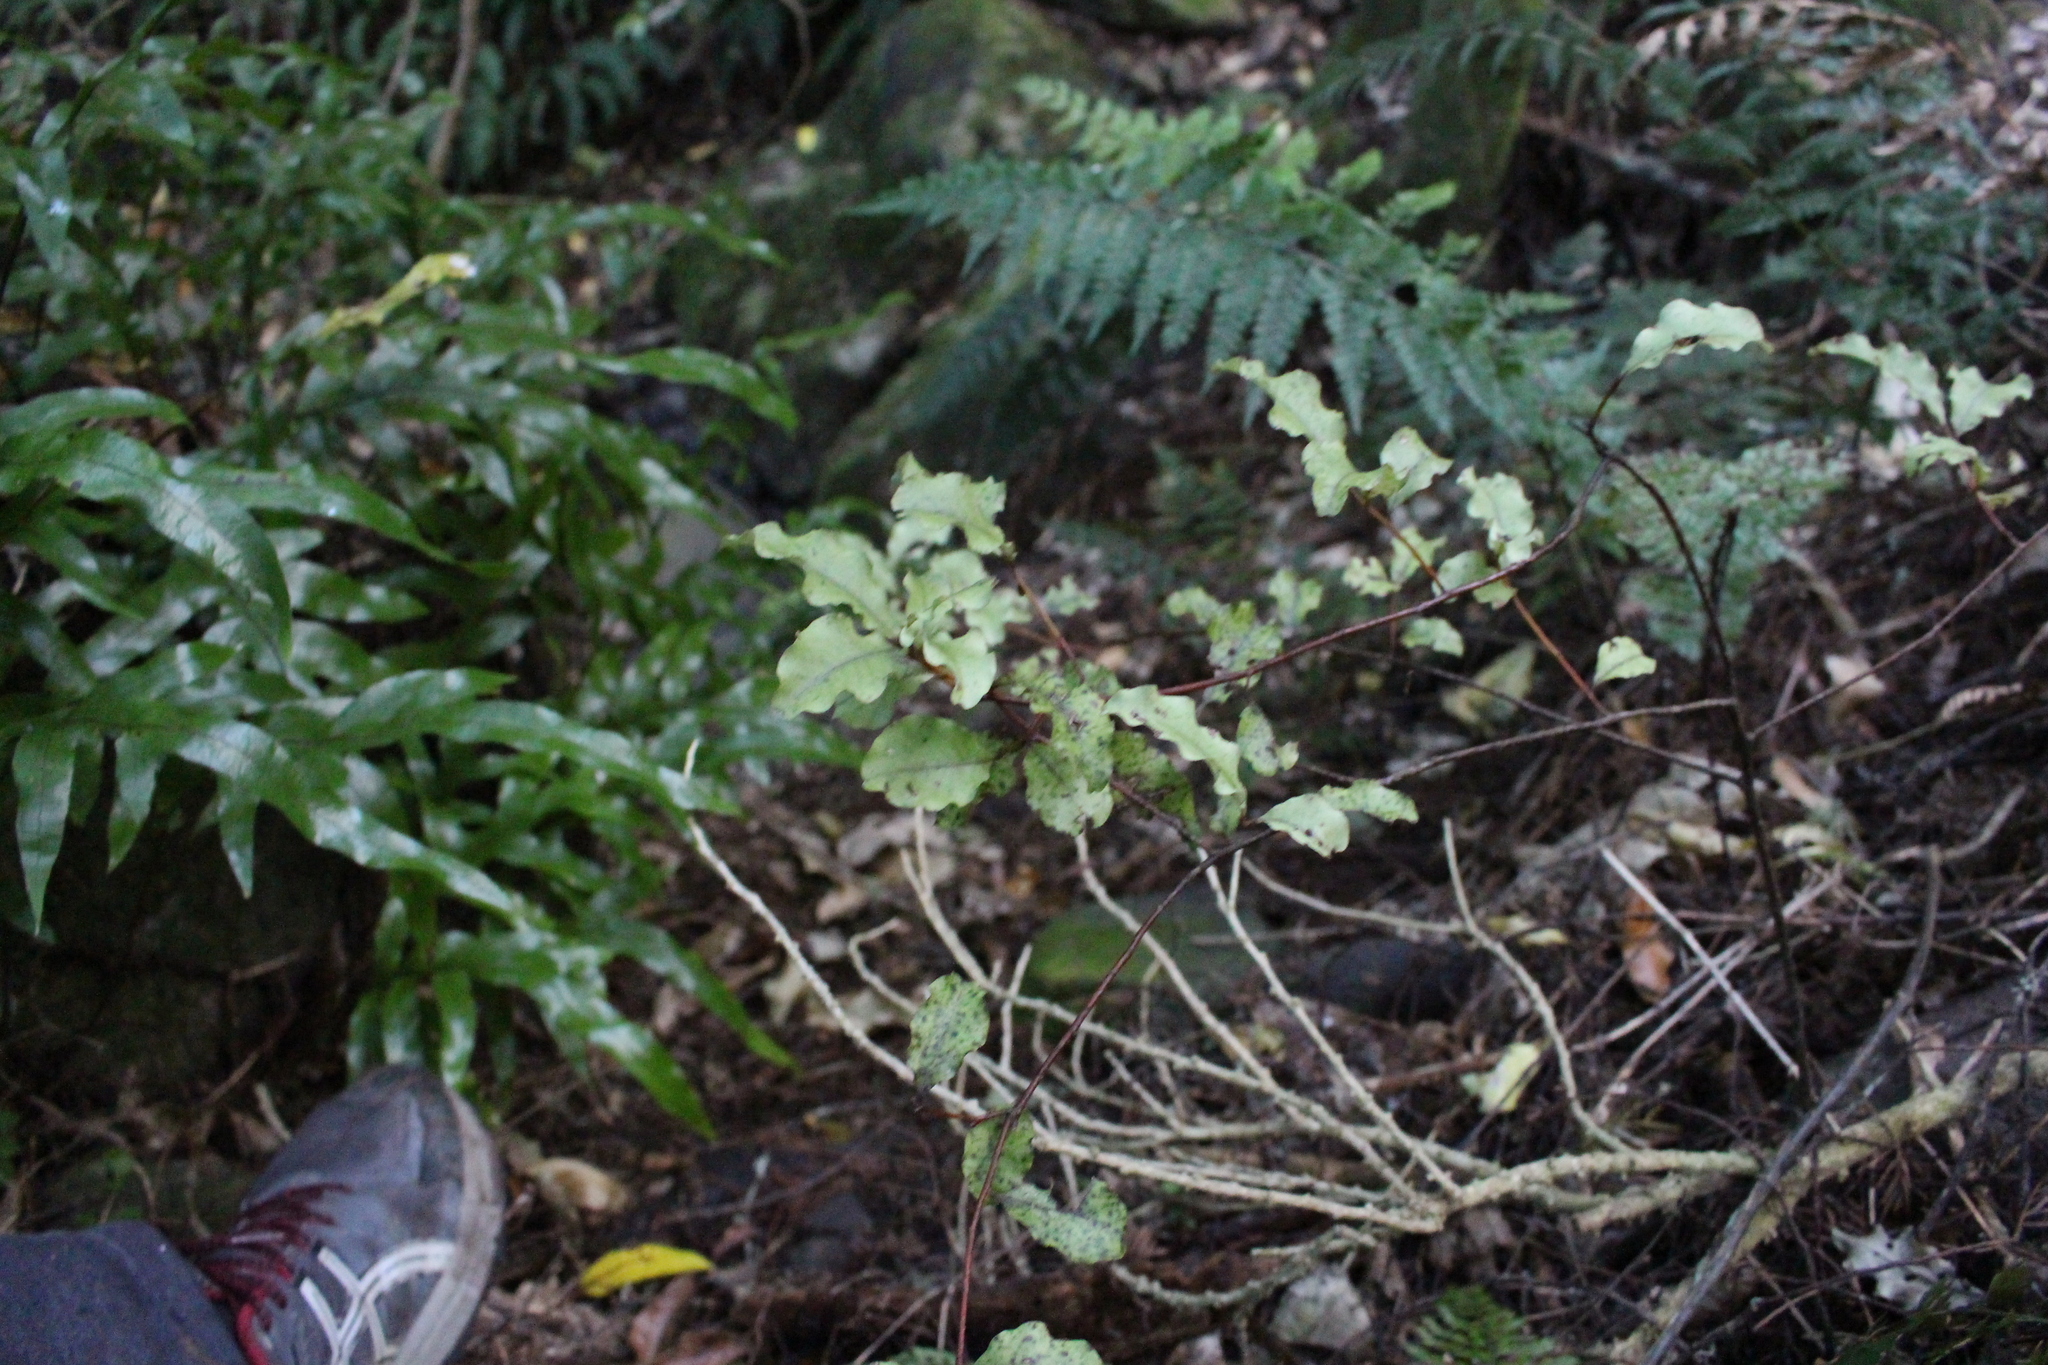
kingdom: Plantae
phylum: Tracheophyta
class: Magnoliopsida
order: Ericales
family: Primulaceae
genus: Myrsine
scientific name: Myrsine australis
